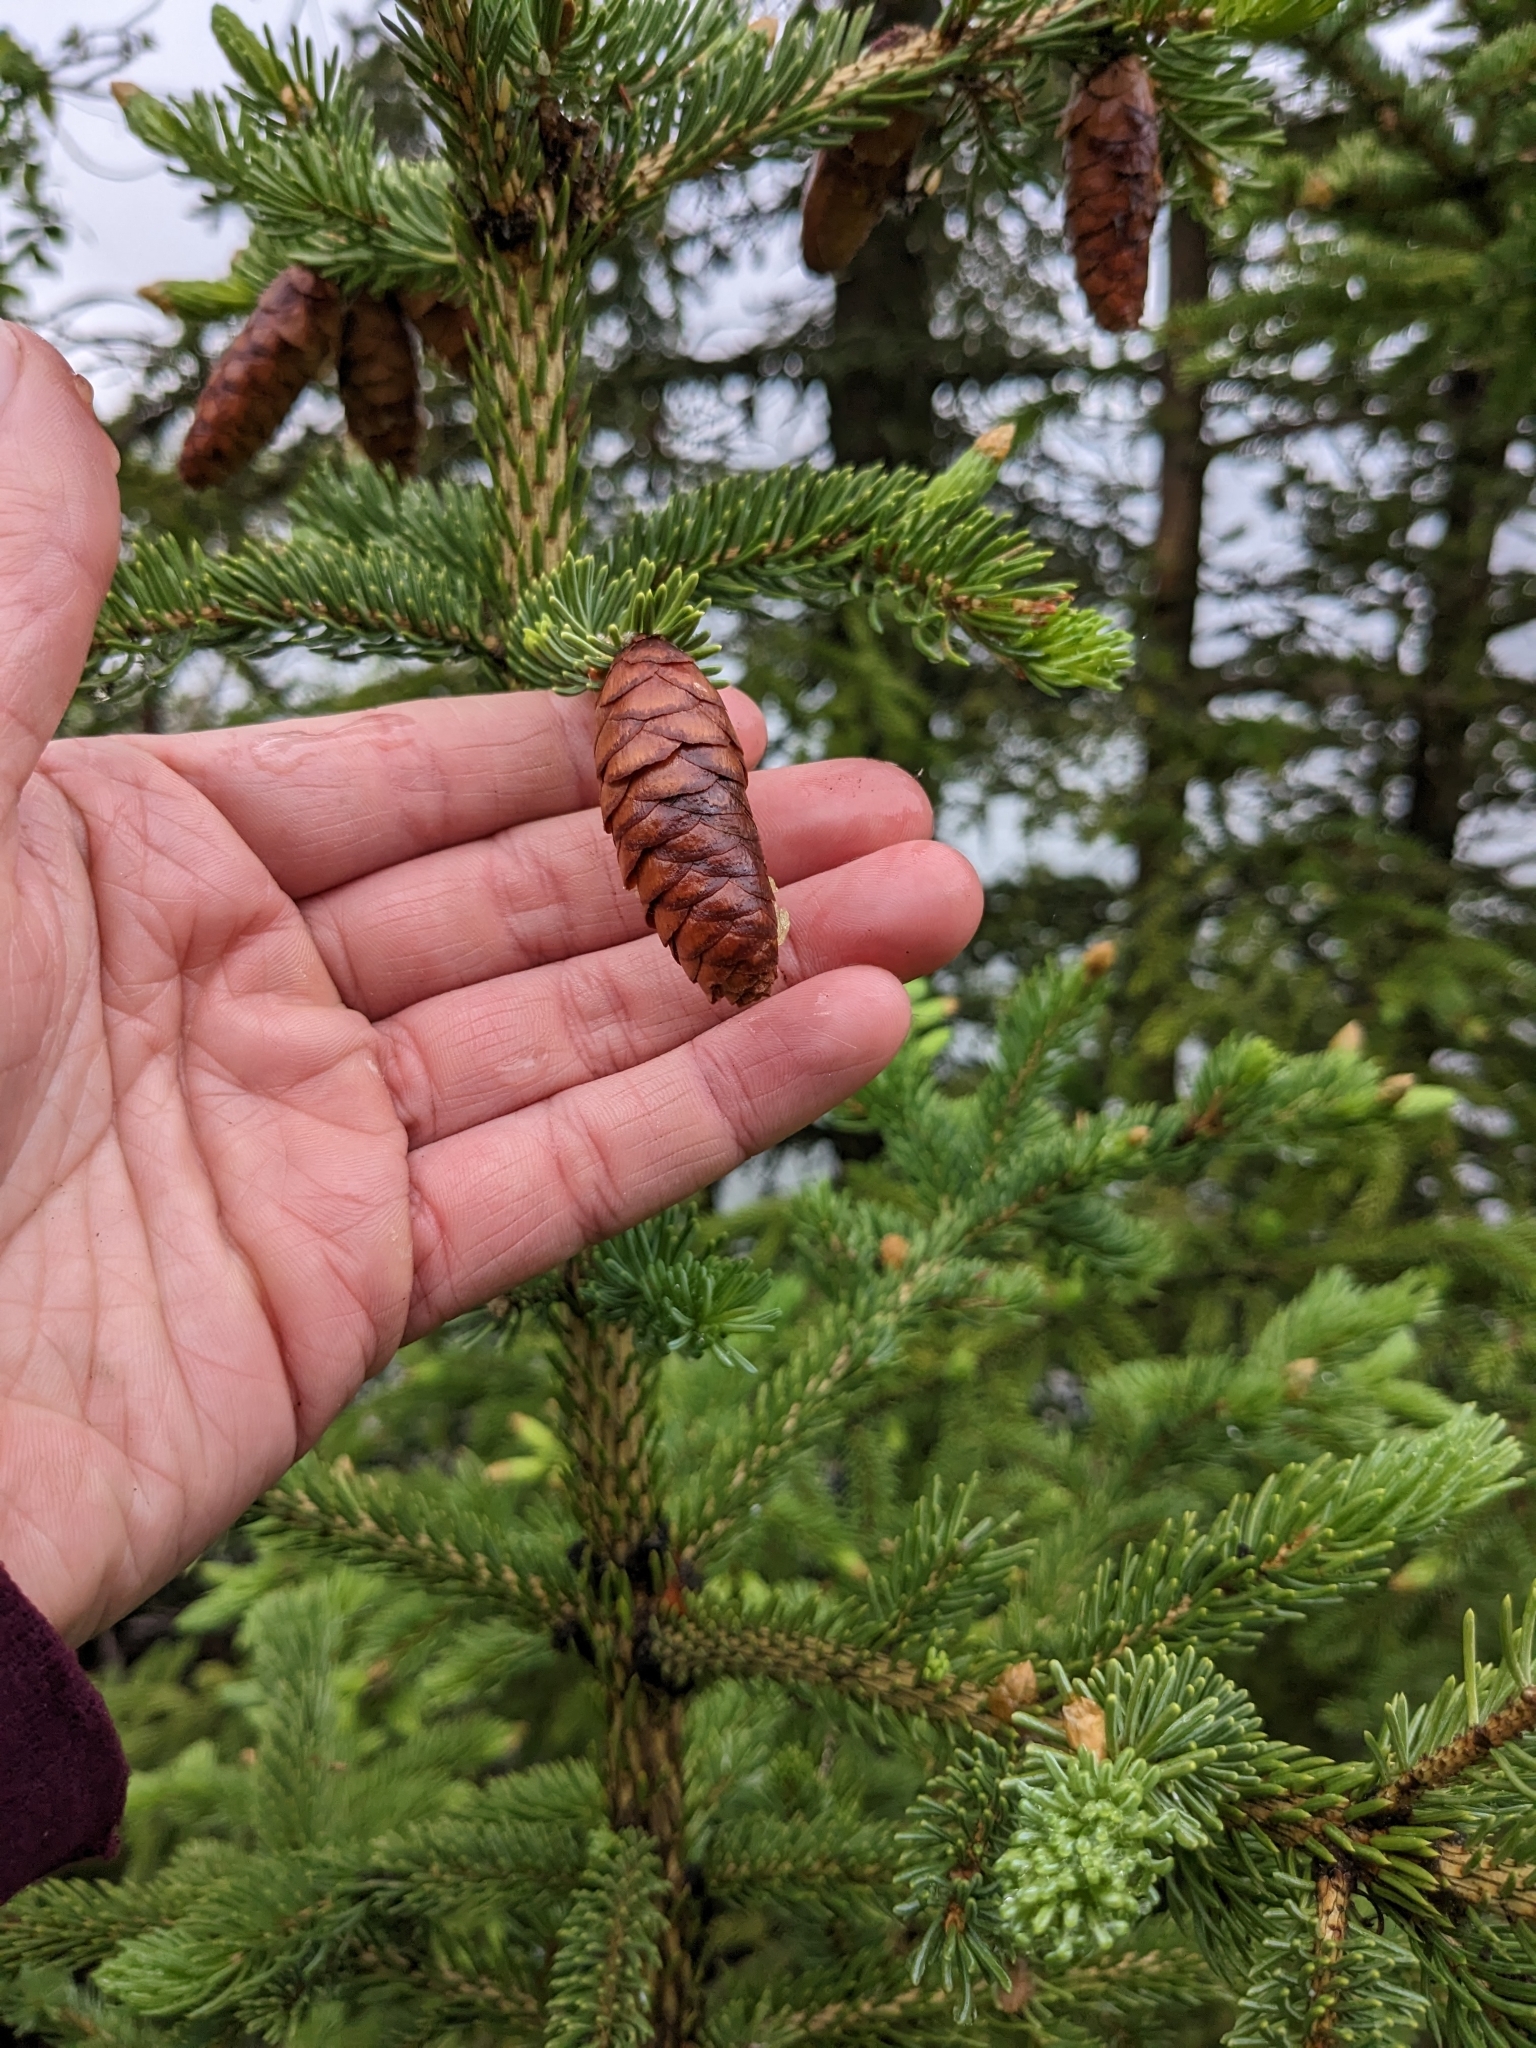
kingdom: Plantae
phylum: Tracheophyta
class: Pinopsida
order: Pinales
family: Pinaceae
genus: Picea
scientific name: Picea glauca
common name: White spruce
